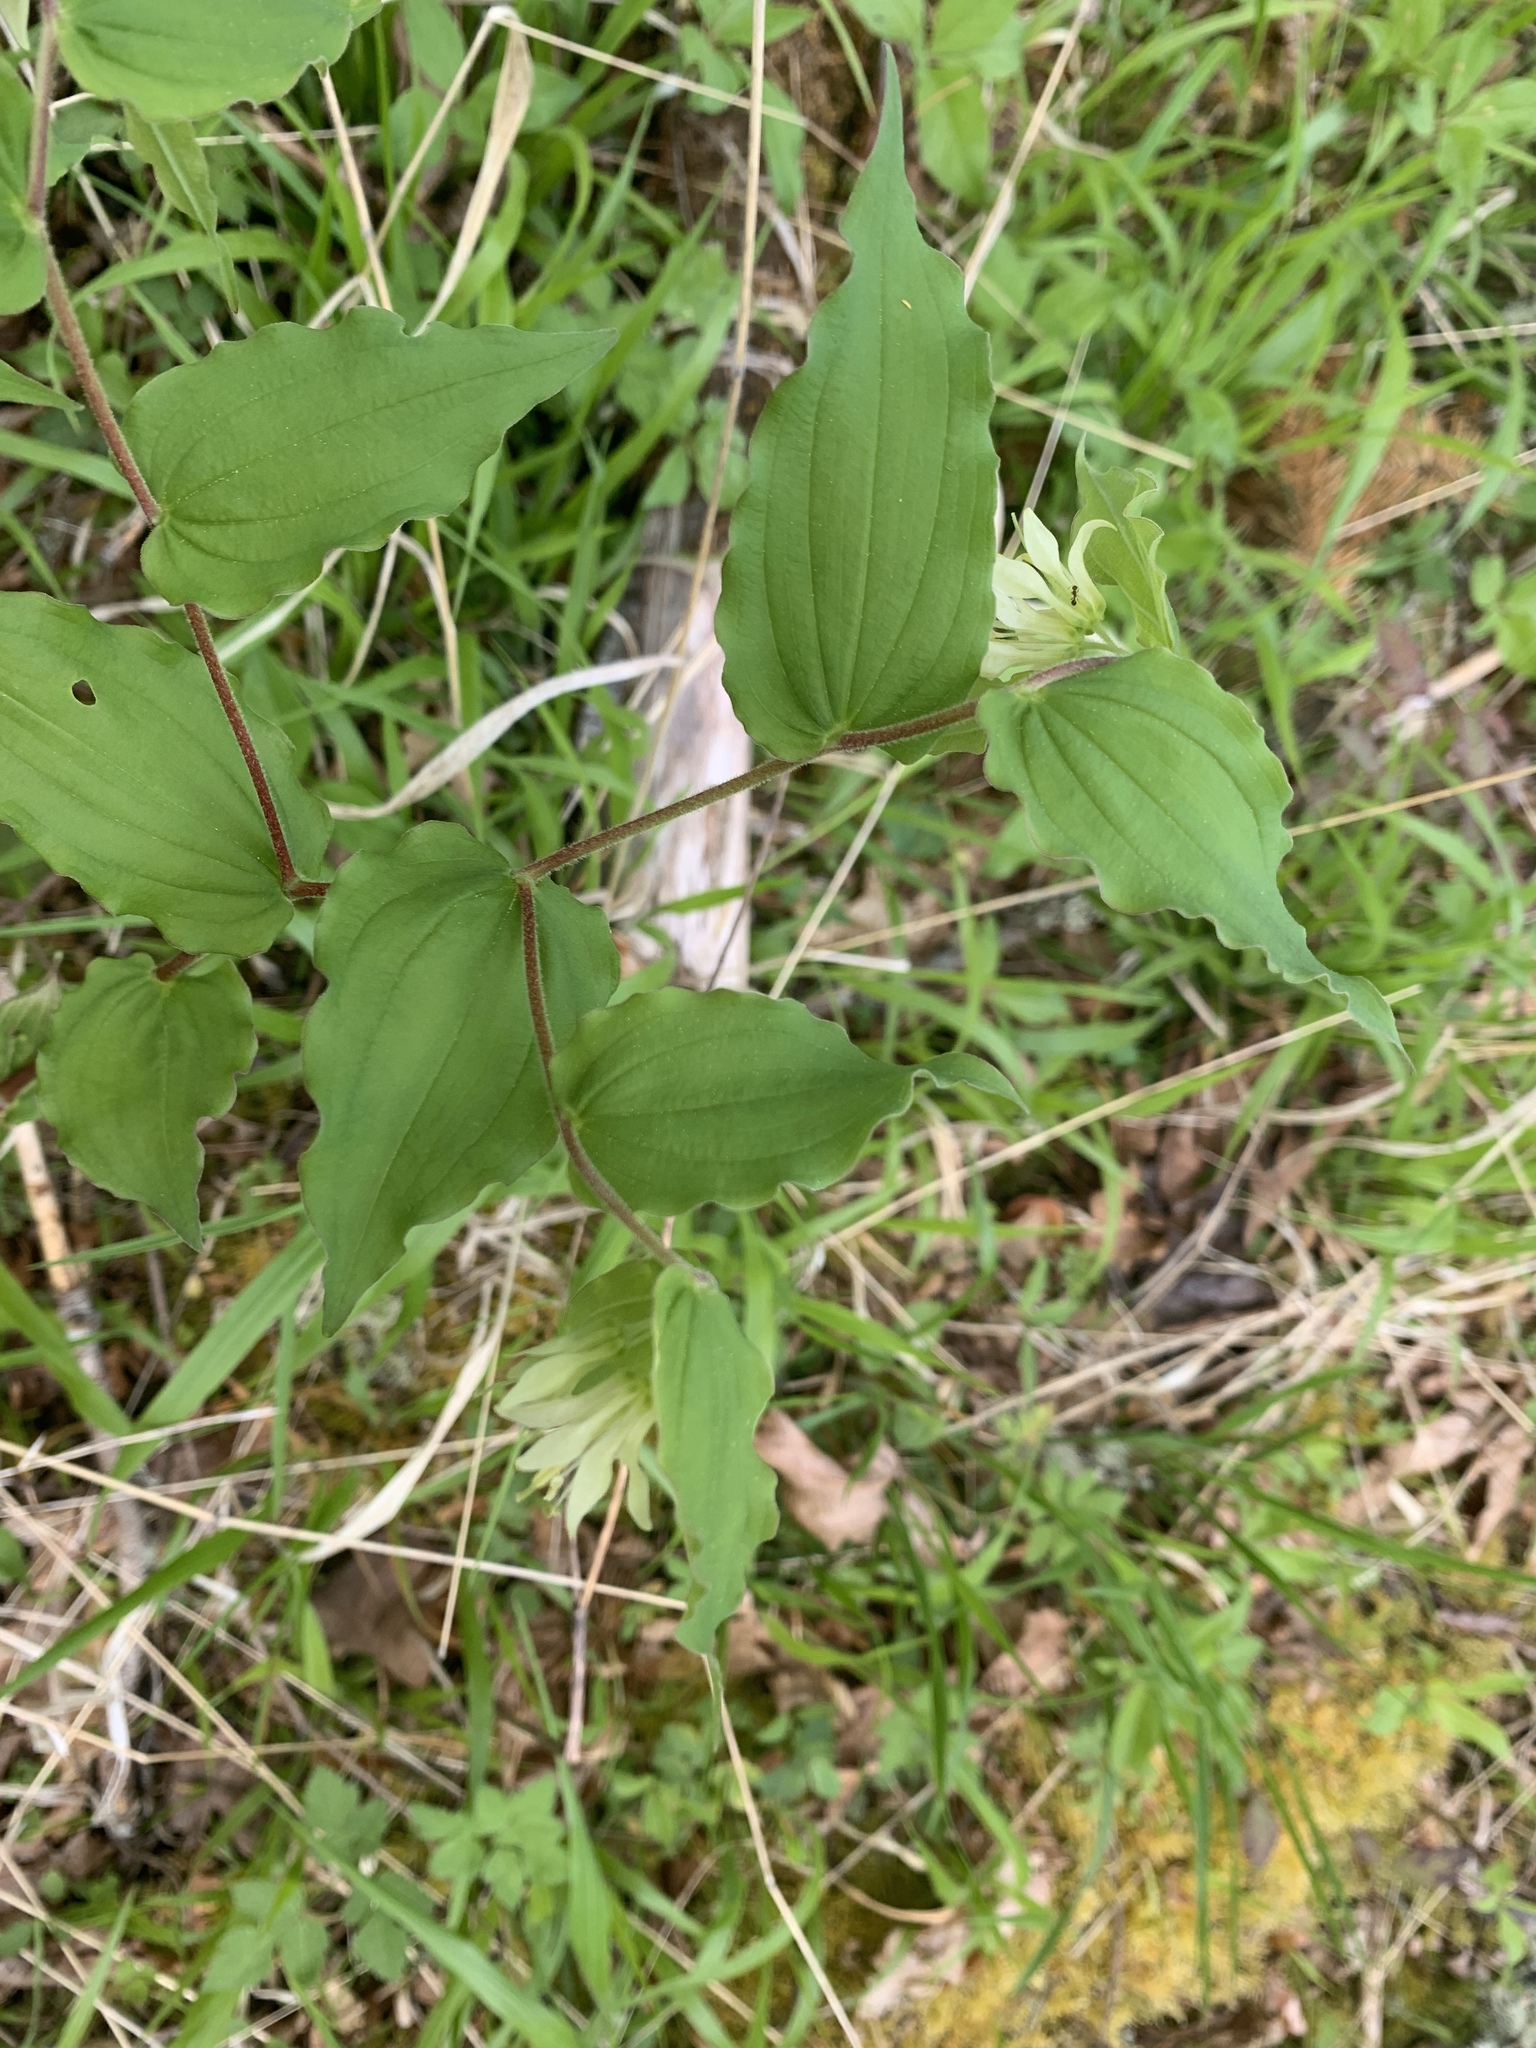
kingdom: Plantae
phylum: Tracheophyta
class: Liliopsida
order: Liliales
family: Liliaceae
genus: Prosartes
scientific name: Prosartes hookeri
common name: Fairy-bells
